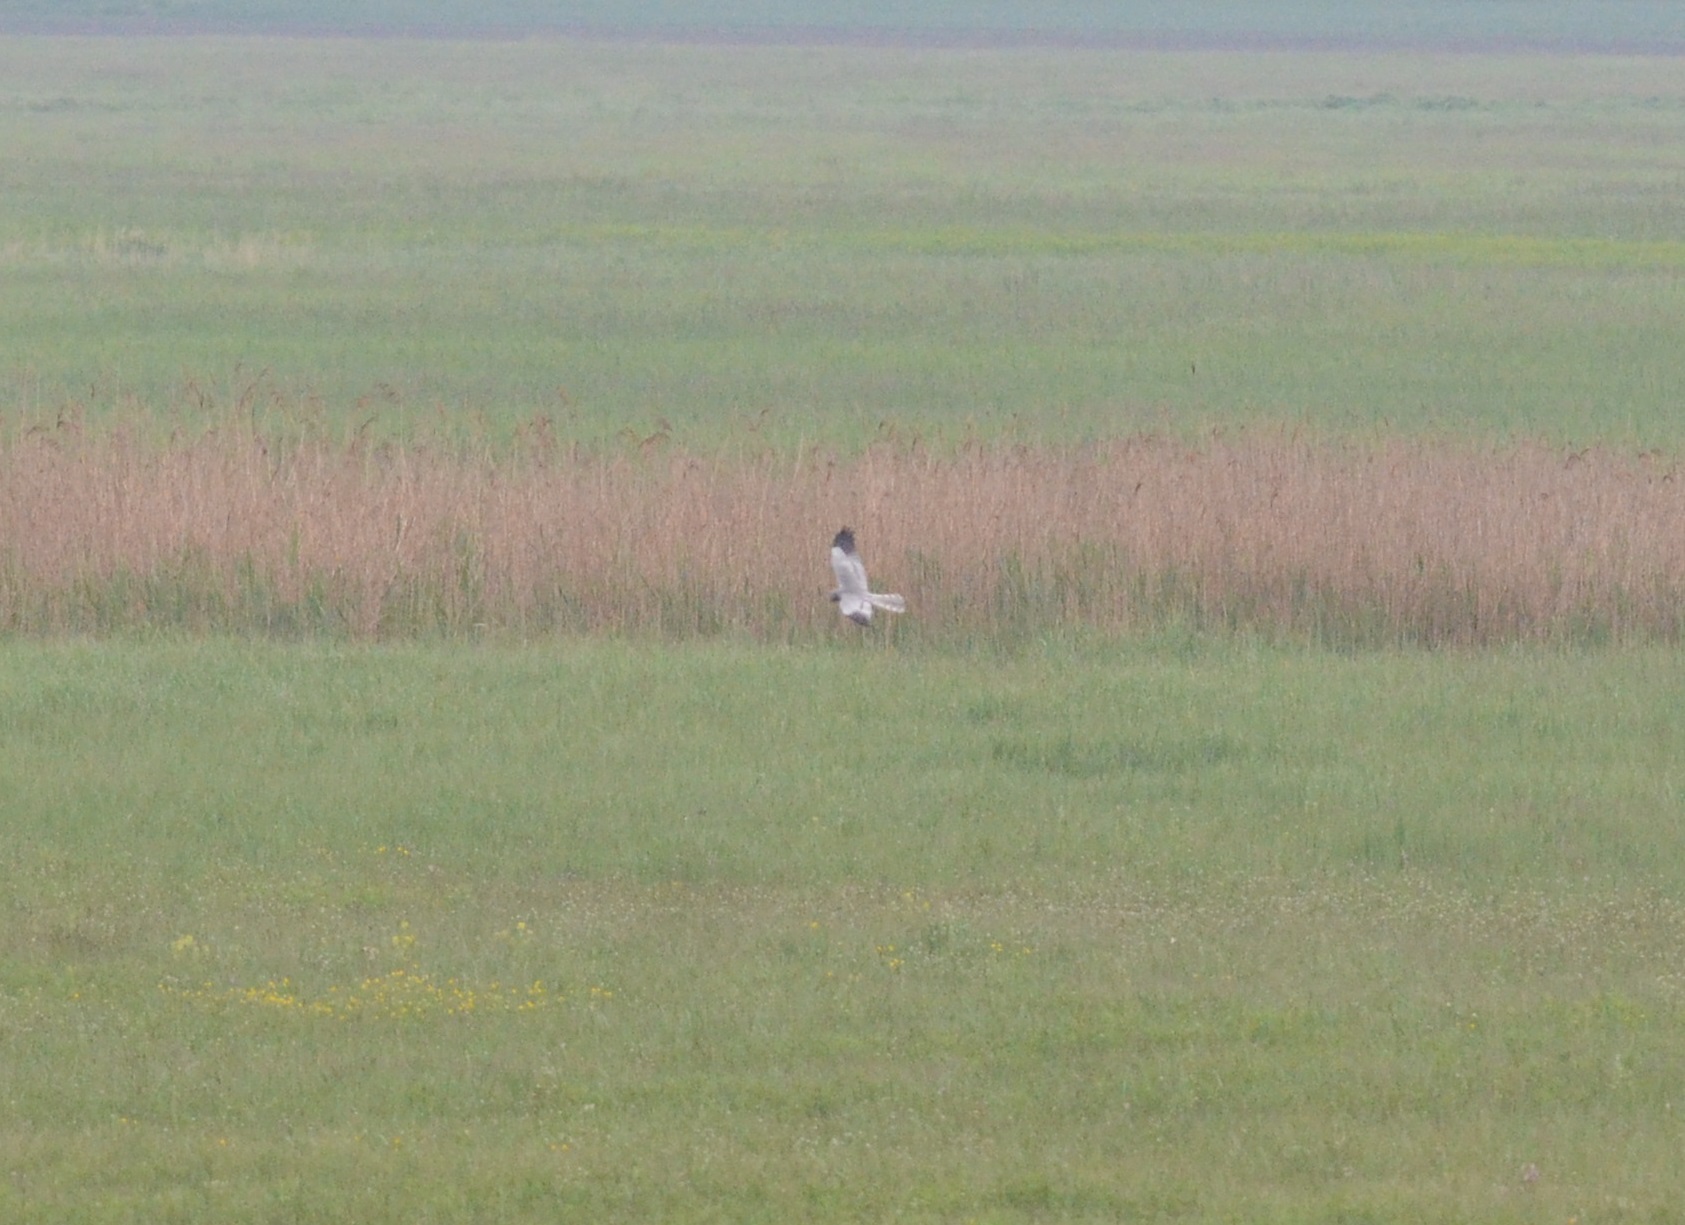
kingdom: Animalia
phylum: Chordata
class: Aves
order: Accipitriformes
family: Accipitridae
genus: Circus
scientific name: Circus pygargus
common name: Montagu's harrier
